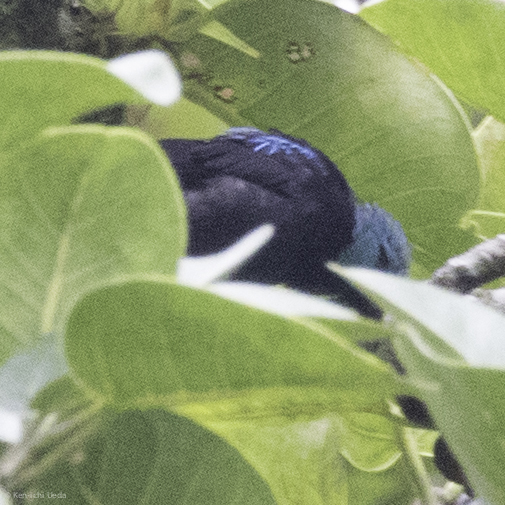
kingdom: Animalia
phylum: Chordata
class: Aves
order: Passeriformes
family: Thraupidae
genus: Dacnis
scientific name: Dacnis venusta
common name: Scarlet-thighed dacnis
